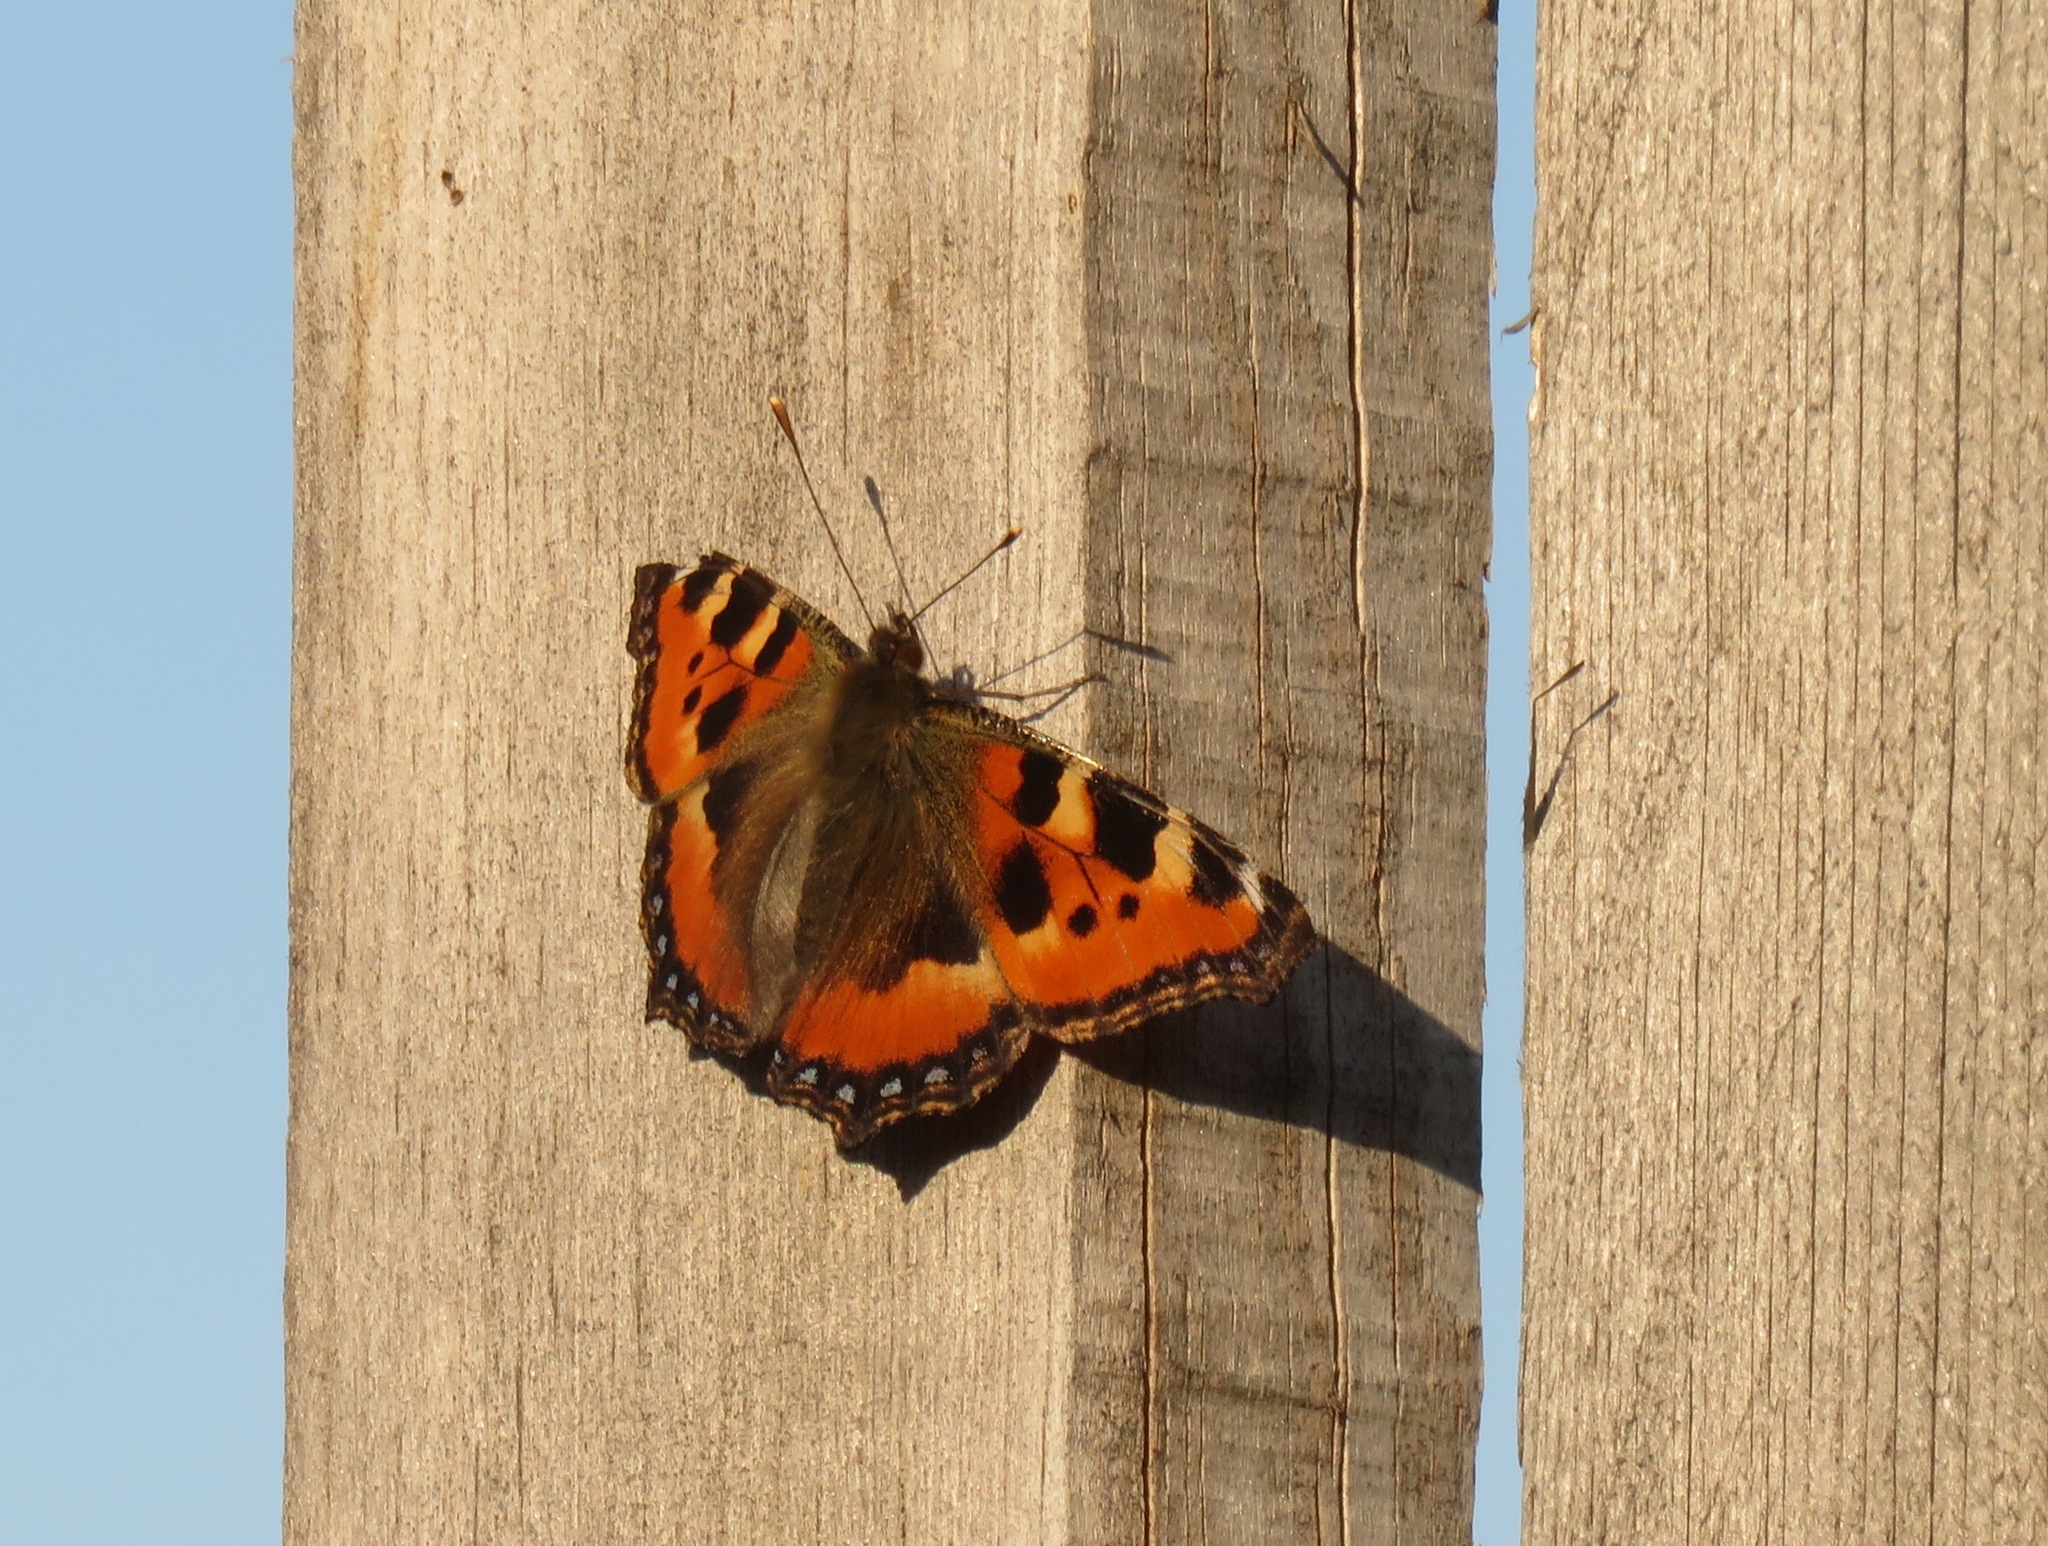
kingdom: Animalia
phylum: Arthropoda
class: Insecta
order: Lepidoptera
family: Nymphalidae
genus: Aglais
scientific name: Aglais urticae
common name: Small tortoiseshell
